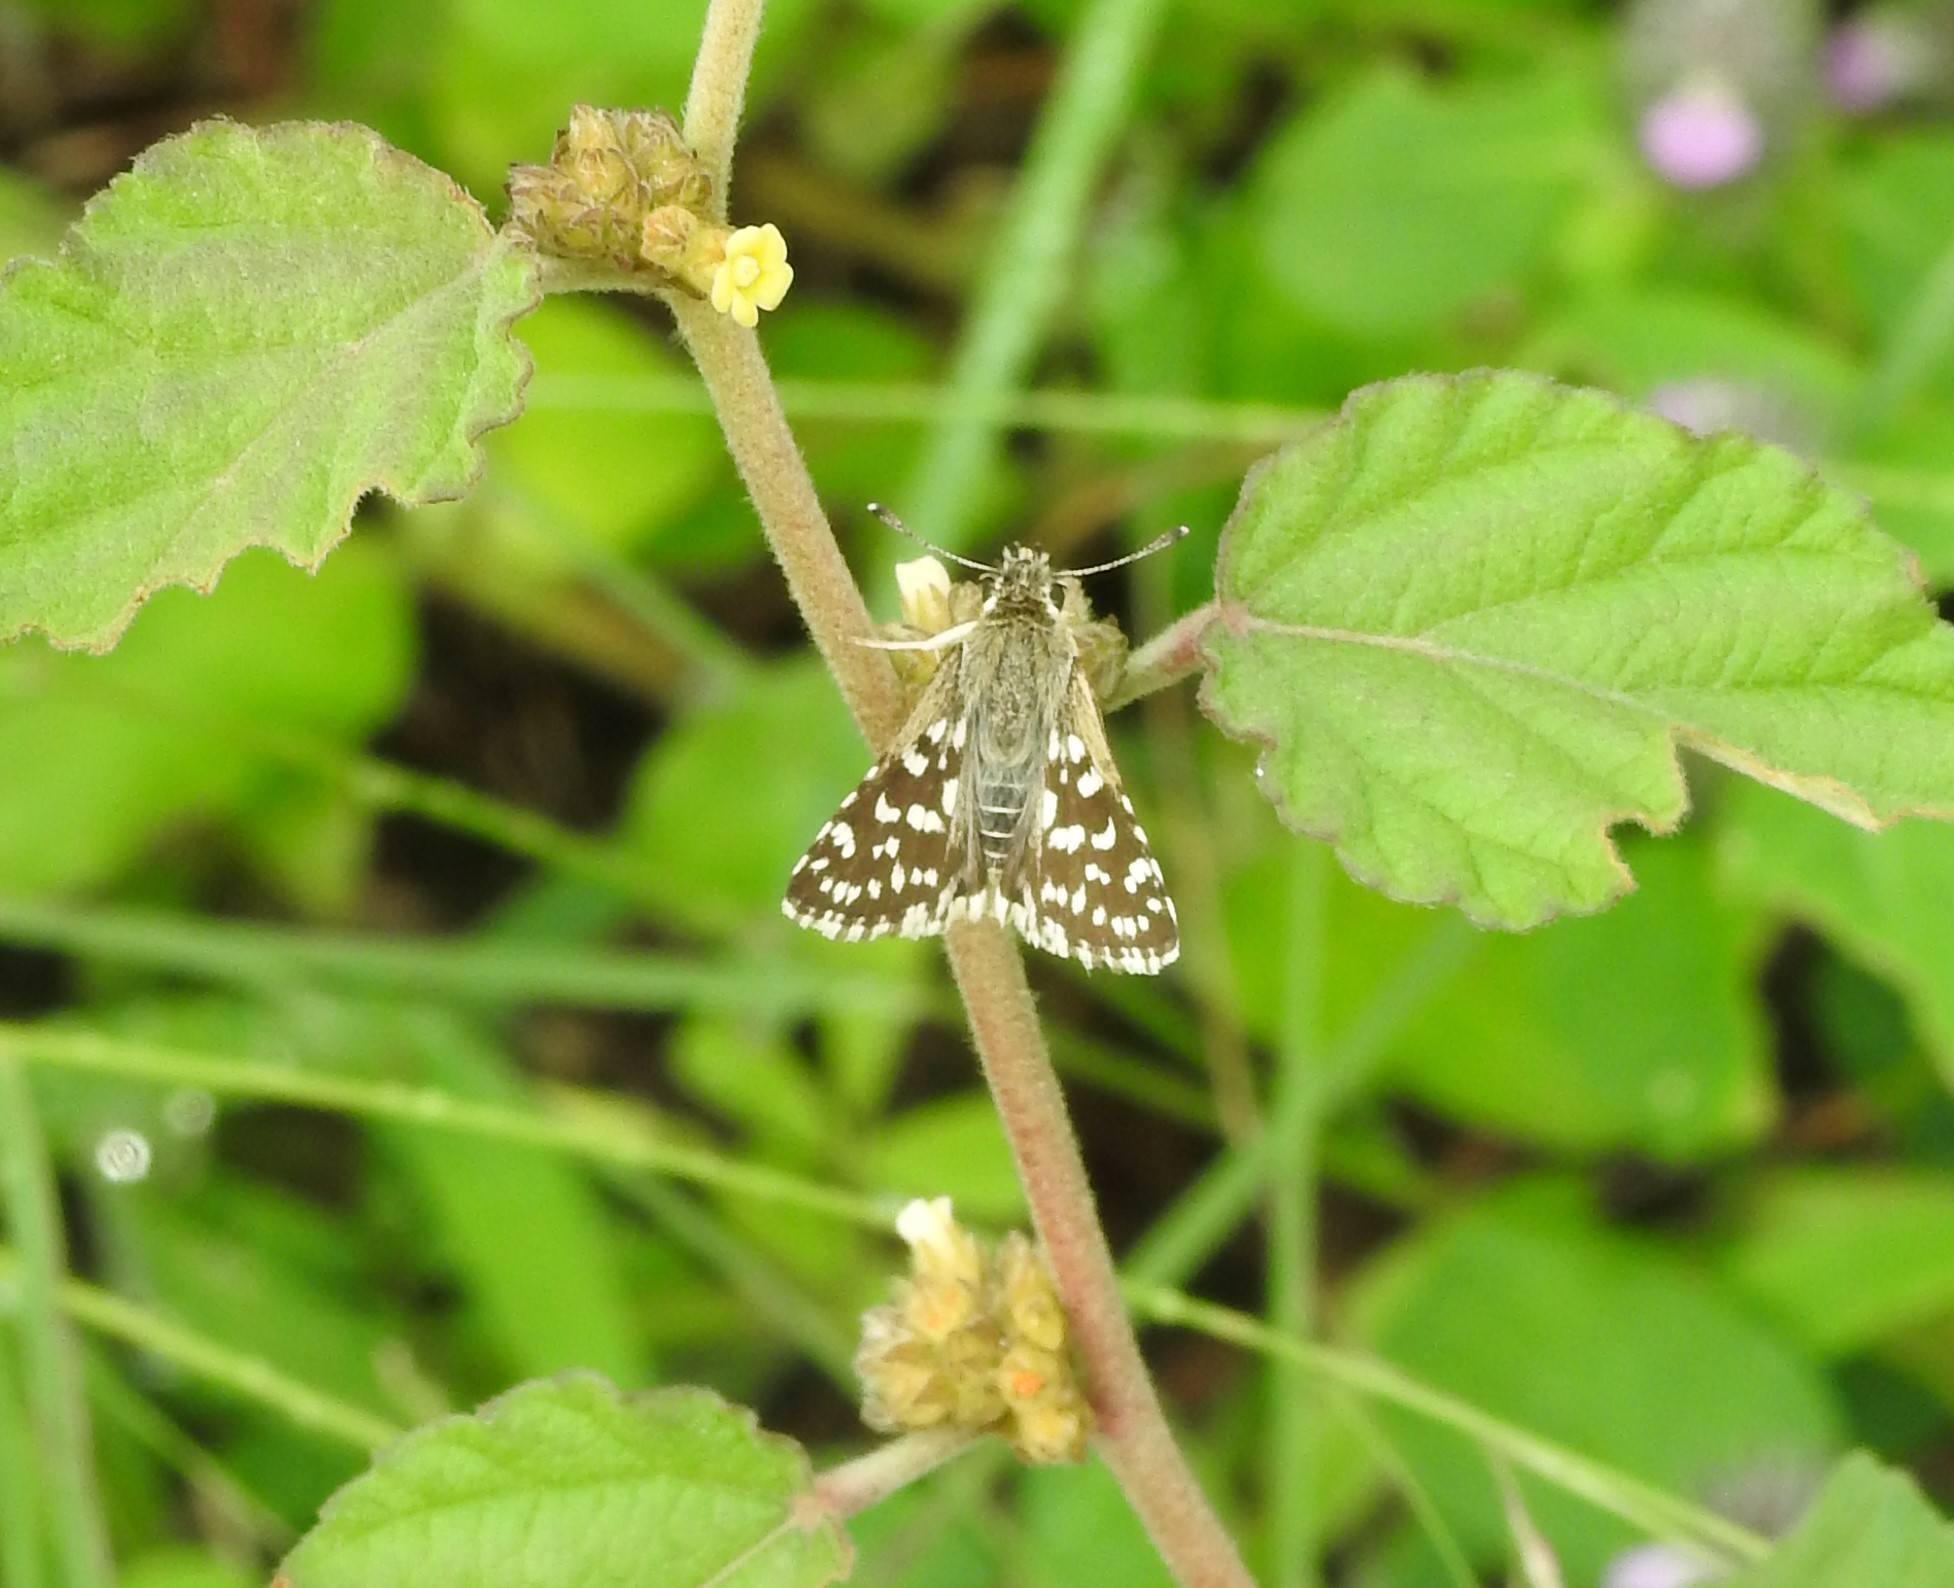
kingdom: Animalia
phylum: Arthropoda
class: Insecta
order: Lepidoptera
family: Hesperiidae
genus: Spialia
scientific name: Spialia galba
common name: Indian skipper
